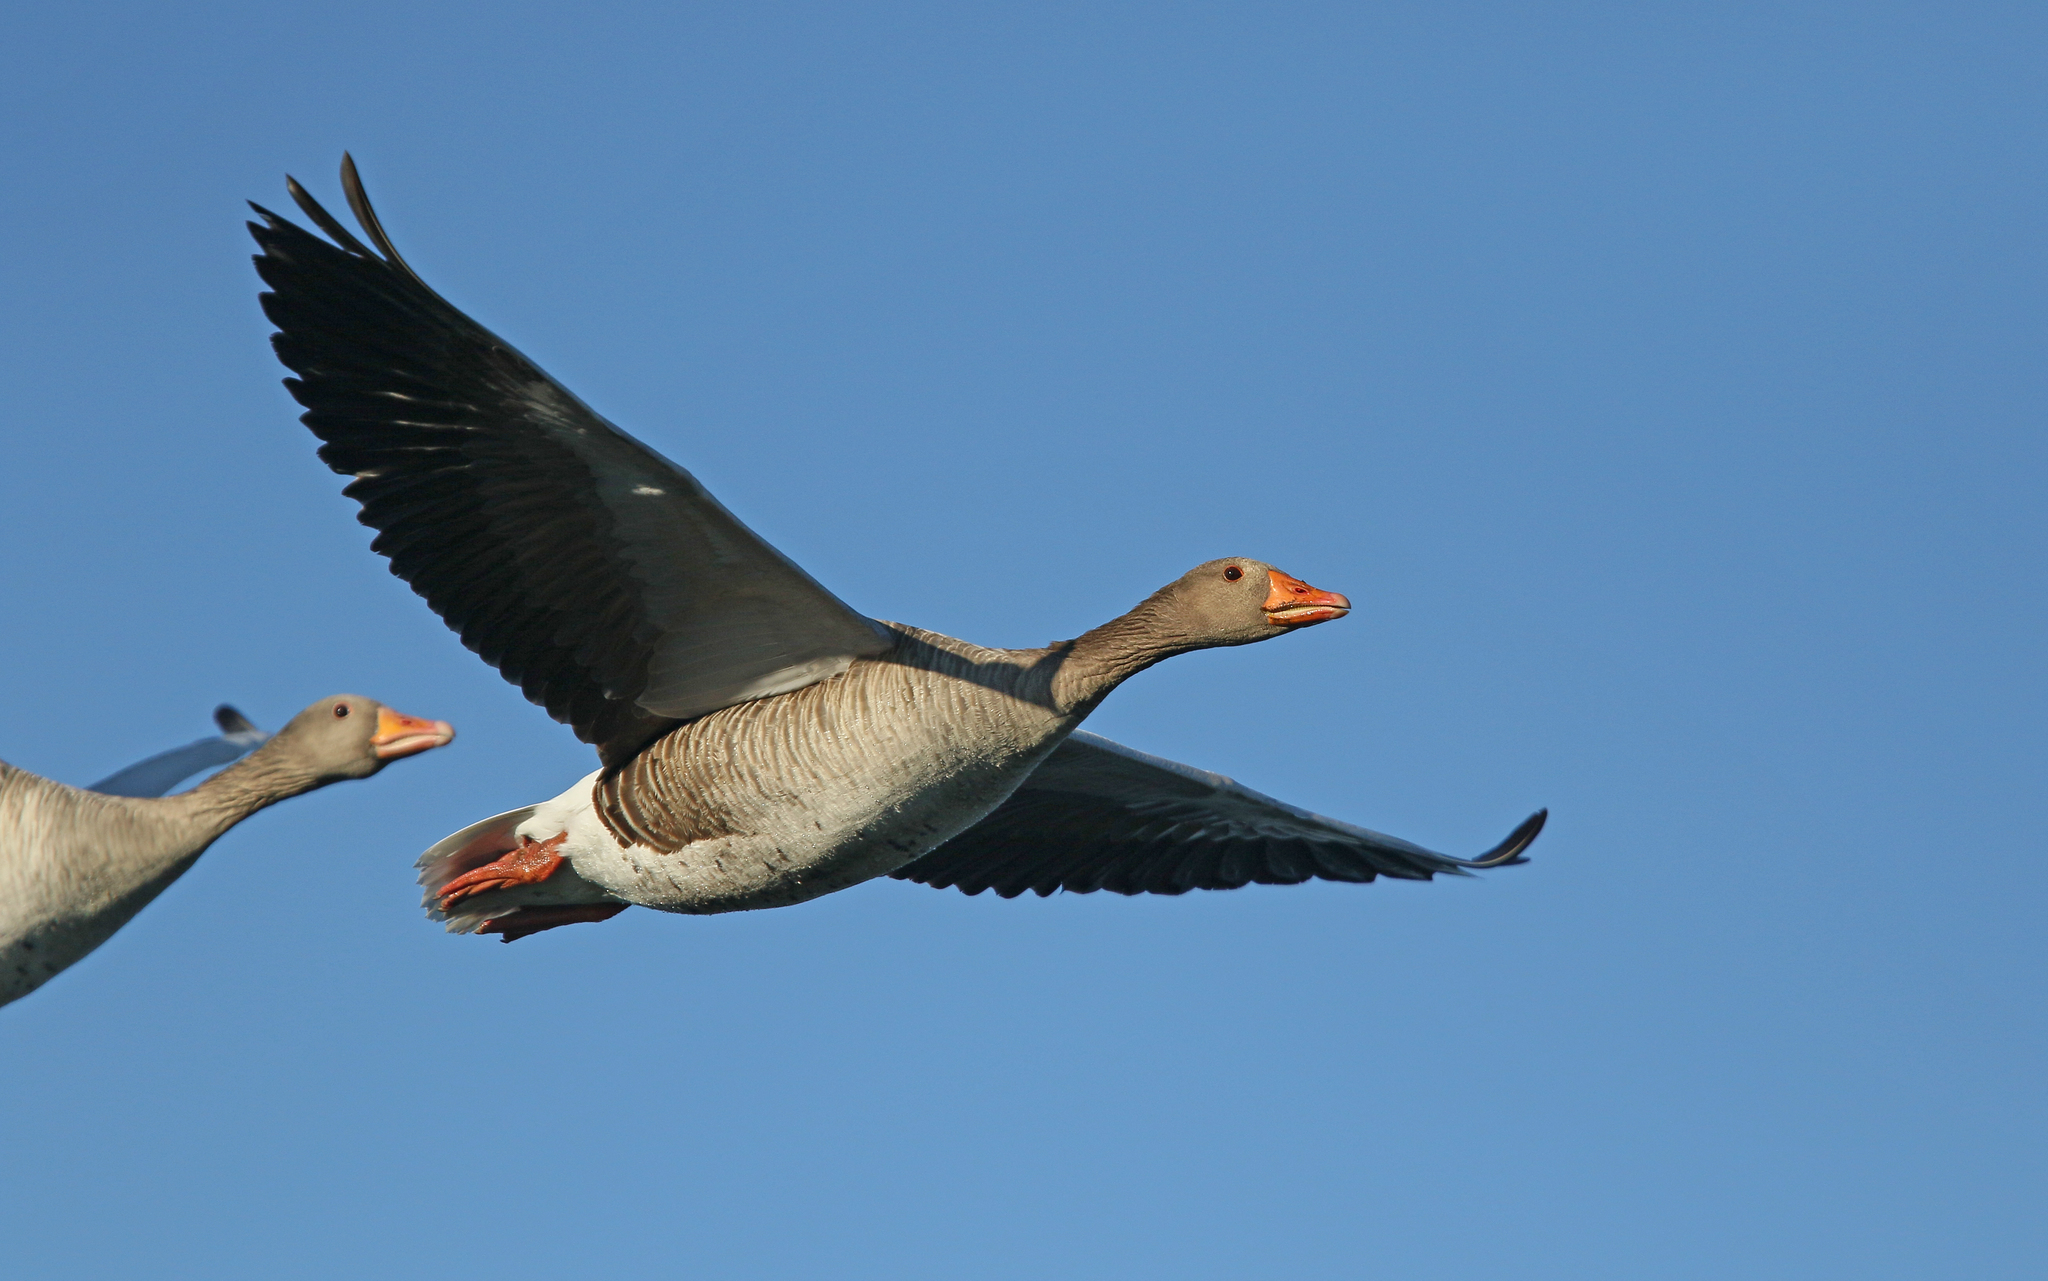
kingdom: Animalia
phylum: Chordata
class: Aves
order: Anseriformes
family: Anatidae
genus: Anser
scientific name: Anser anser
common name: Greylag goose
